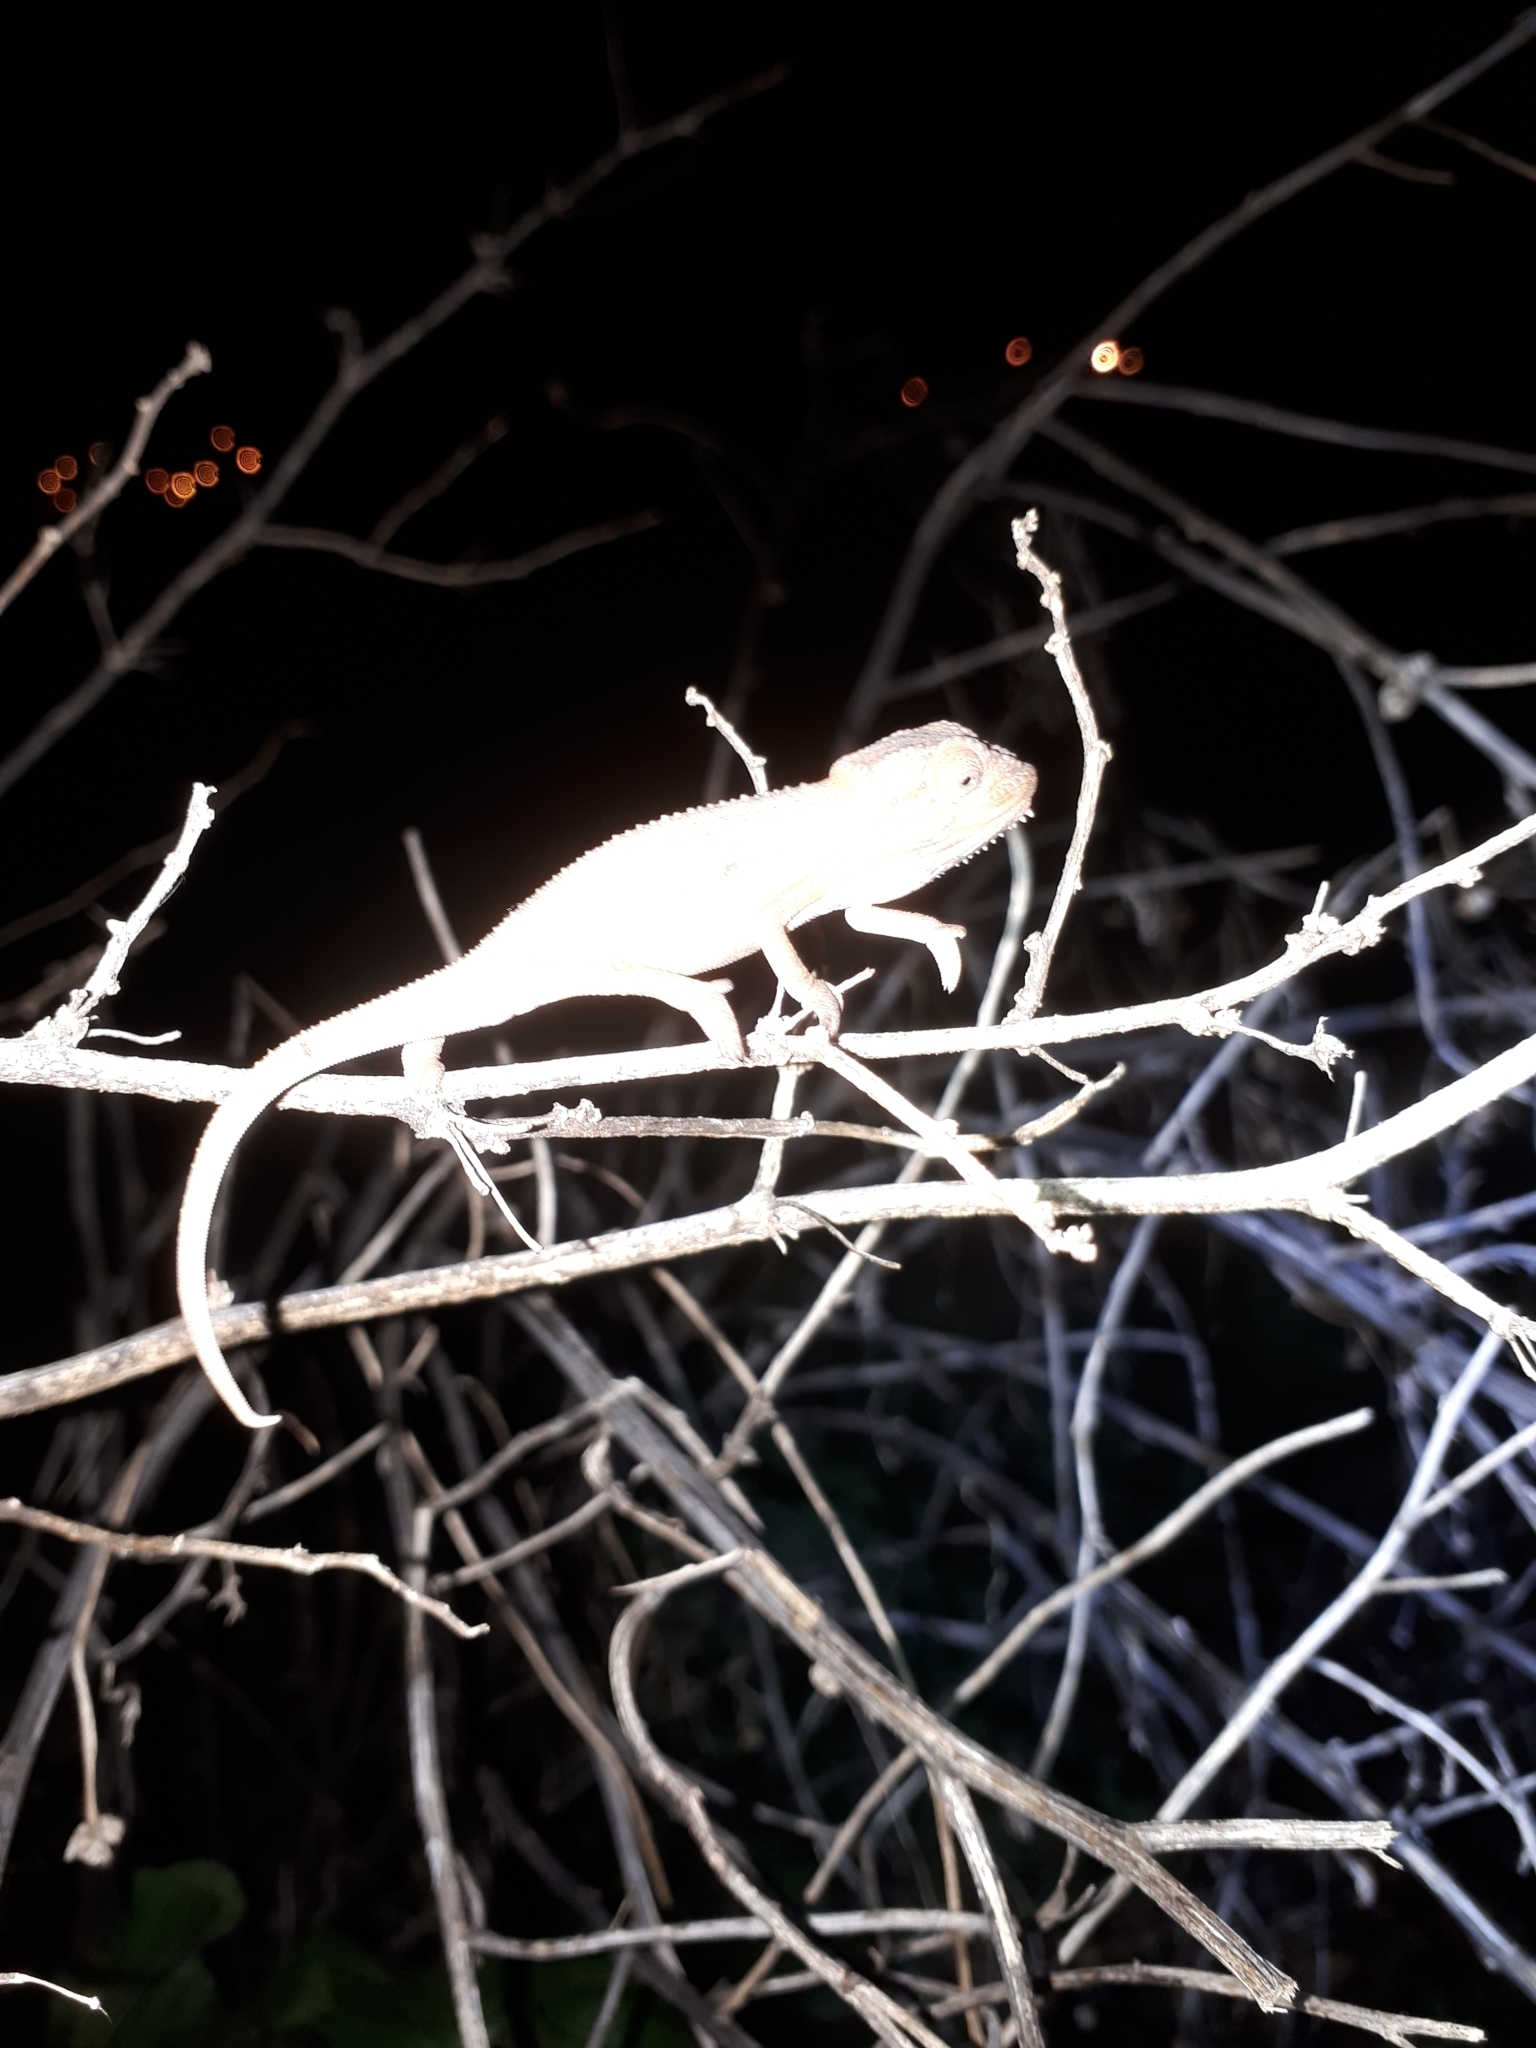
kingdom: Animalia
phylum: Chordata
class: Squamata
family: Chamaeleonidae
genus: Bradypodion
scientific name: Bradypodion pumilum
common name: Cape dwarf chameleon
